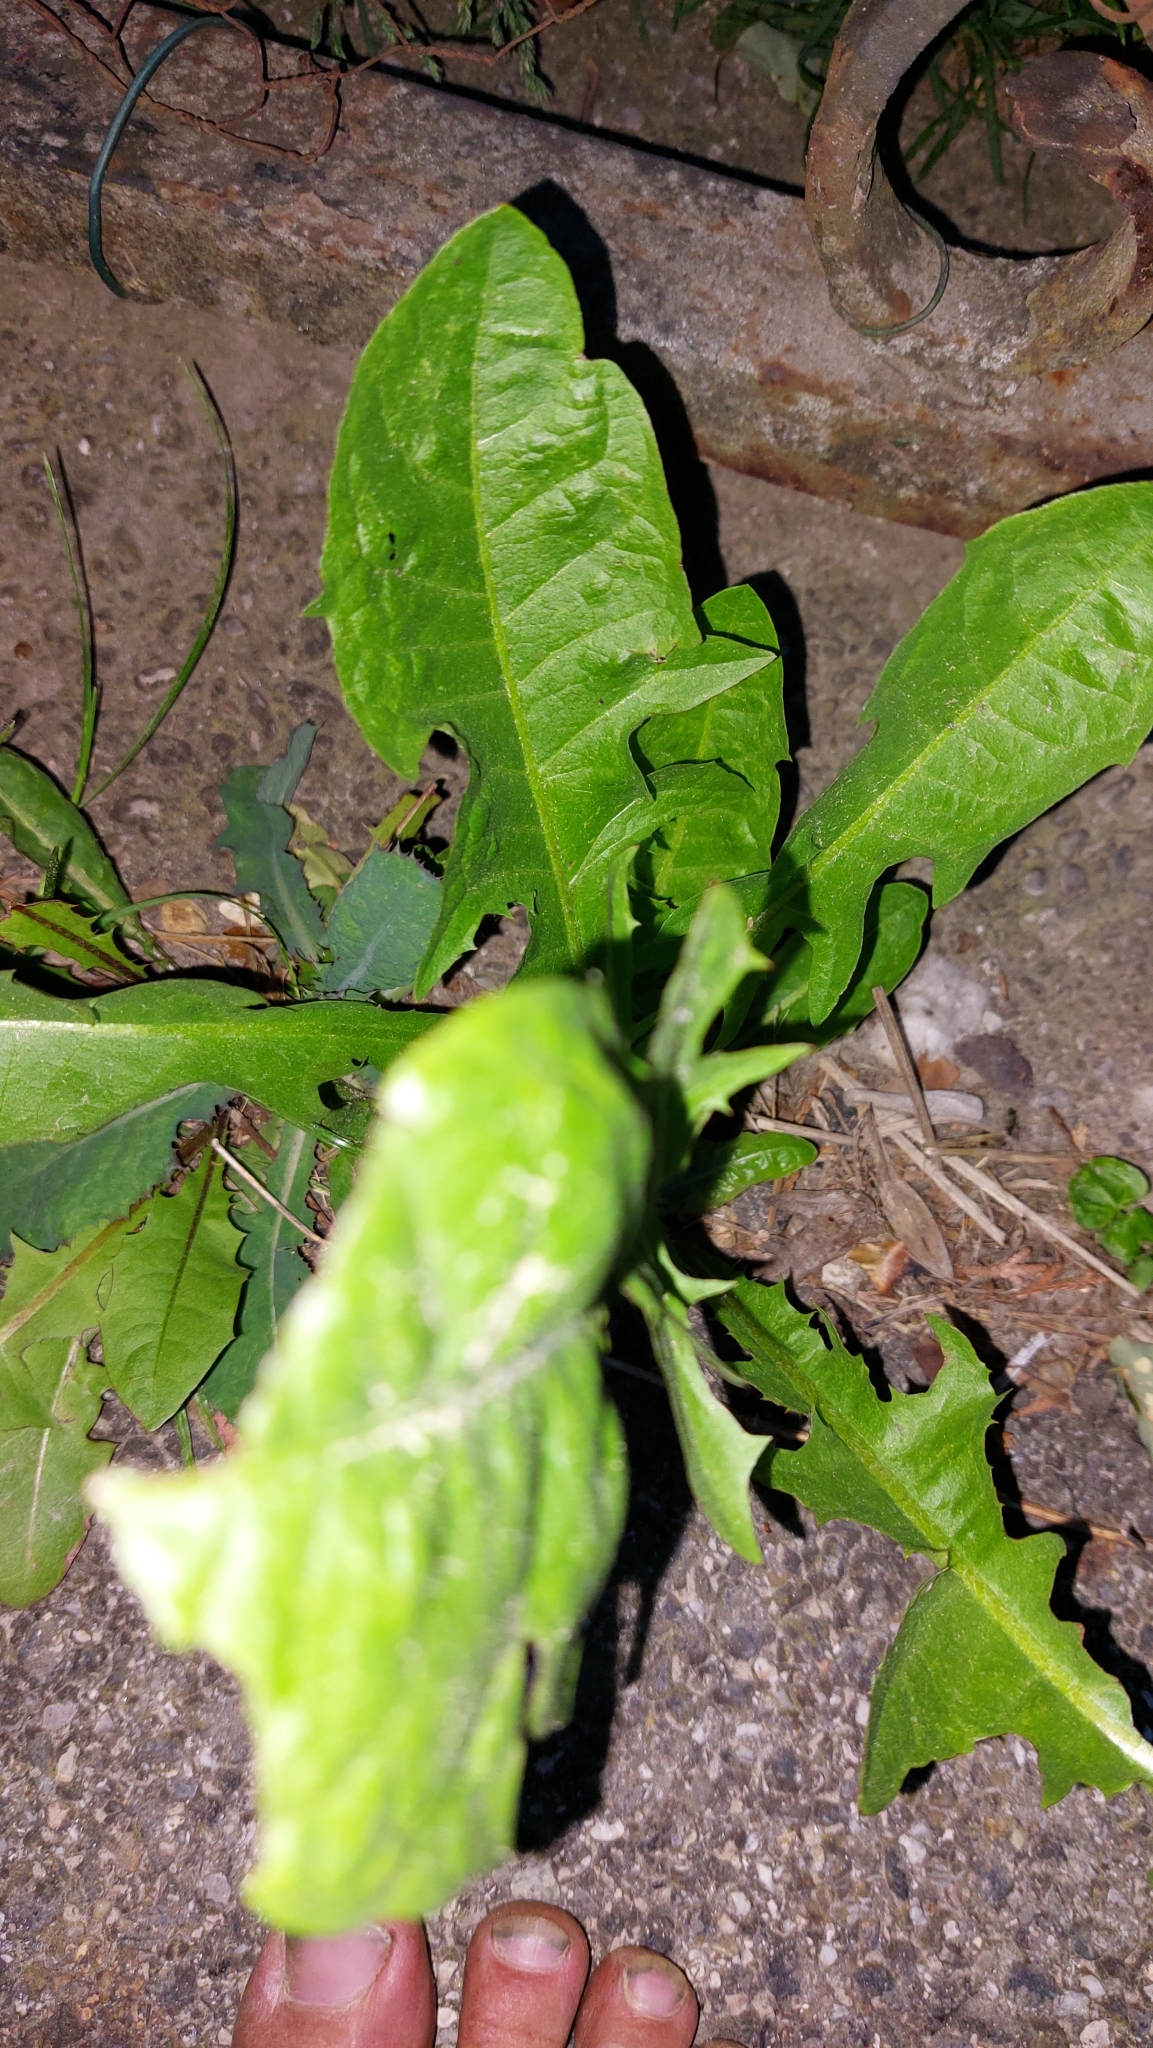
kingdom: Plantae
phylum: Tracheophyta
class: Magnoliopsida
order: Asterales
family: Asteraceae
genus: Taraxacum
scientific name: Taraxacum
